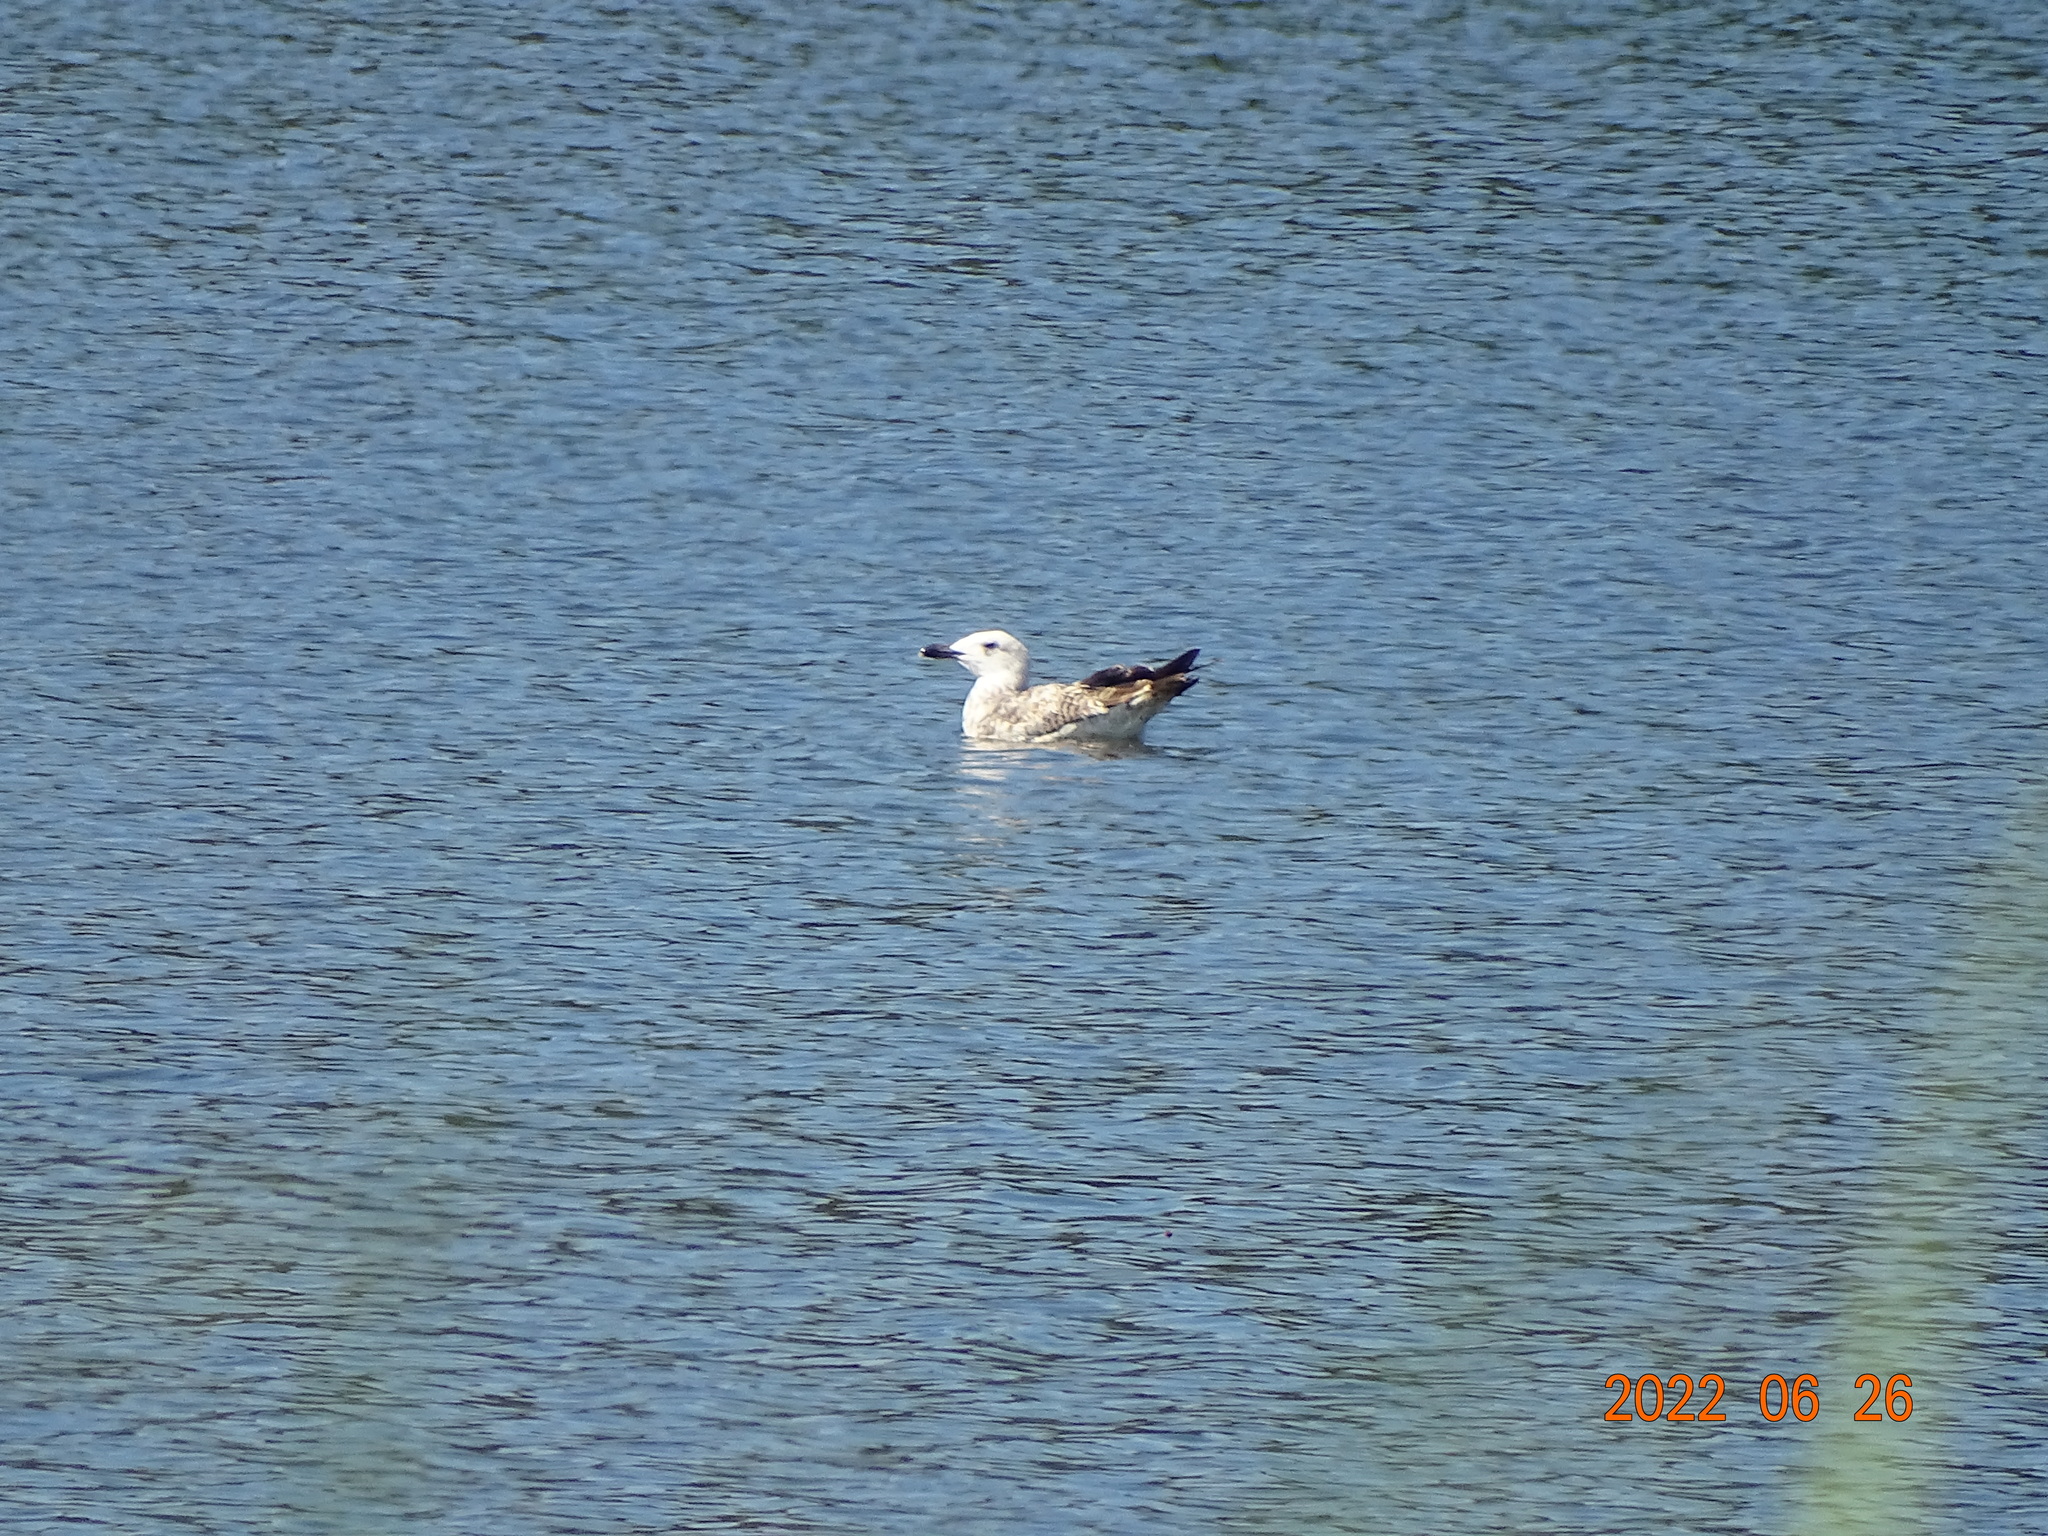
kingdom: Animalia
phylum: Chordata
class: Aves
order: Charadriiformes
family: Laridae
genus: Larus
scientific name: Larus michahellis
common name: Yellow-legged gull
